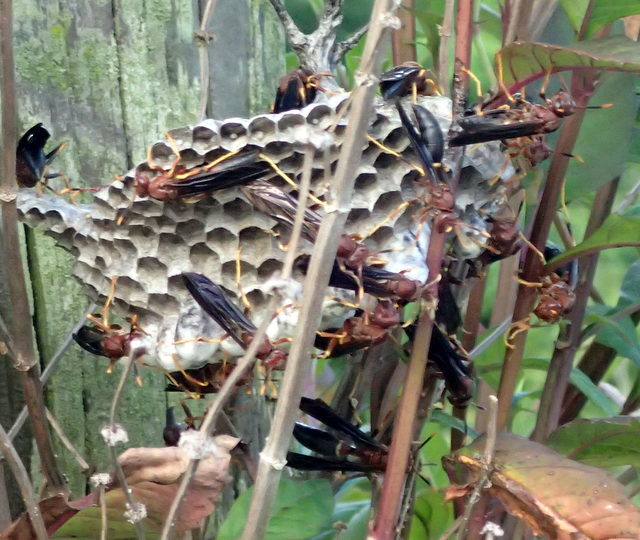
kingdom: Animalia
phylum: Arthropoda
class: Insecta
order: Hymenoptera
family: Eumenidae
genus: Polistes
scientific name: Polistes annularis
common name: Ringed paper wasp
